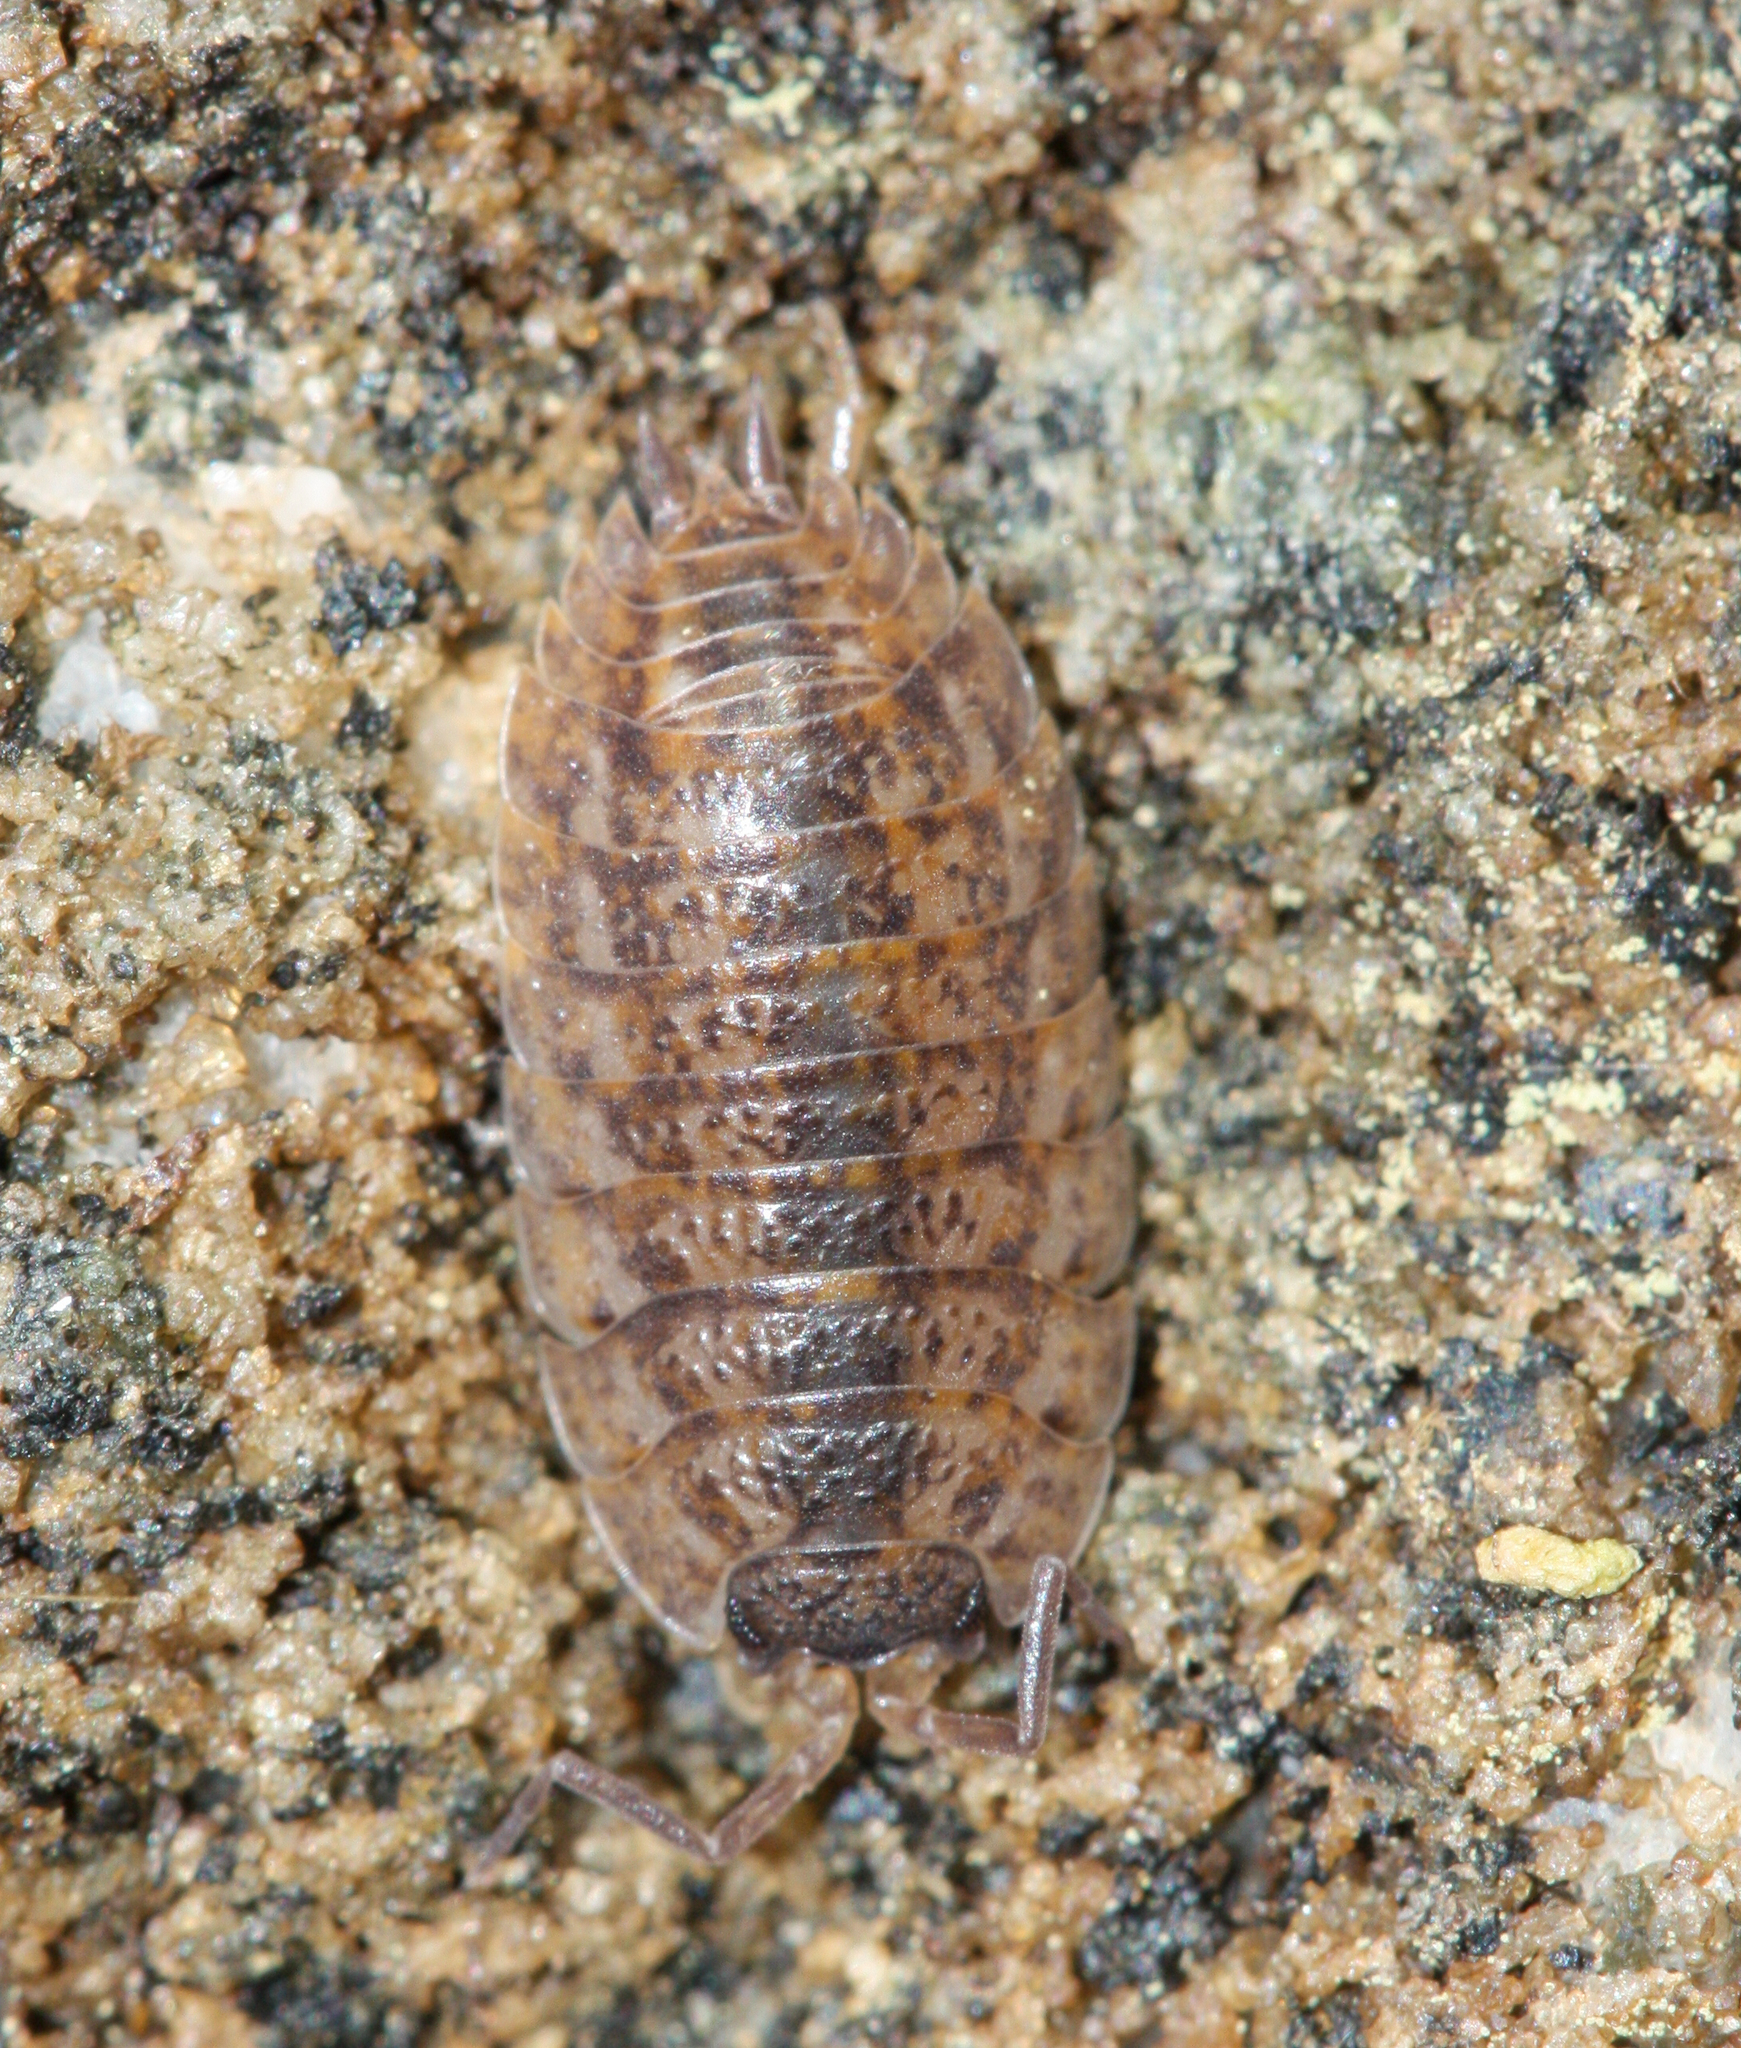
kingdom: Animalia
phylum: Arthropoda
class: Malacostraca
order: Isopoda
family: Trachelipodidae
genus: Trachelipus
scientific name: Trachelipus rathkii
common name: Isopod
